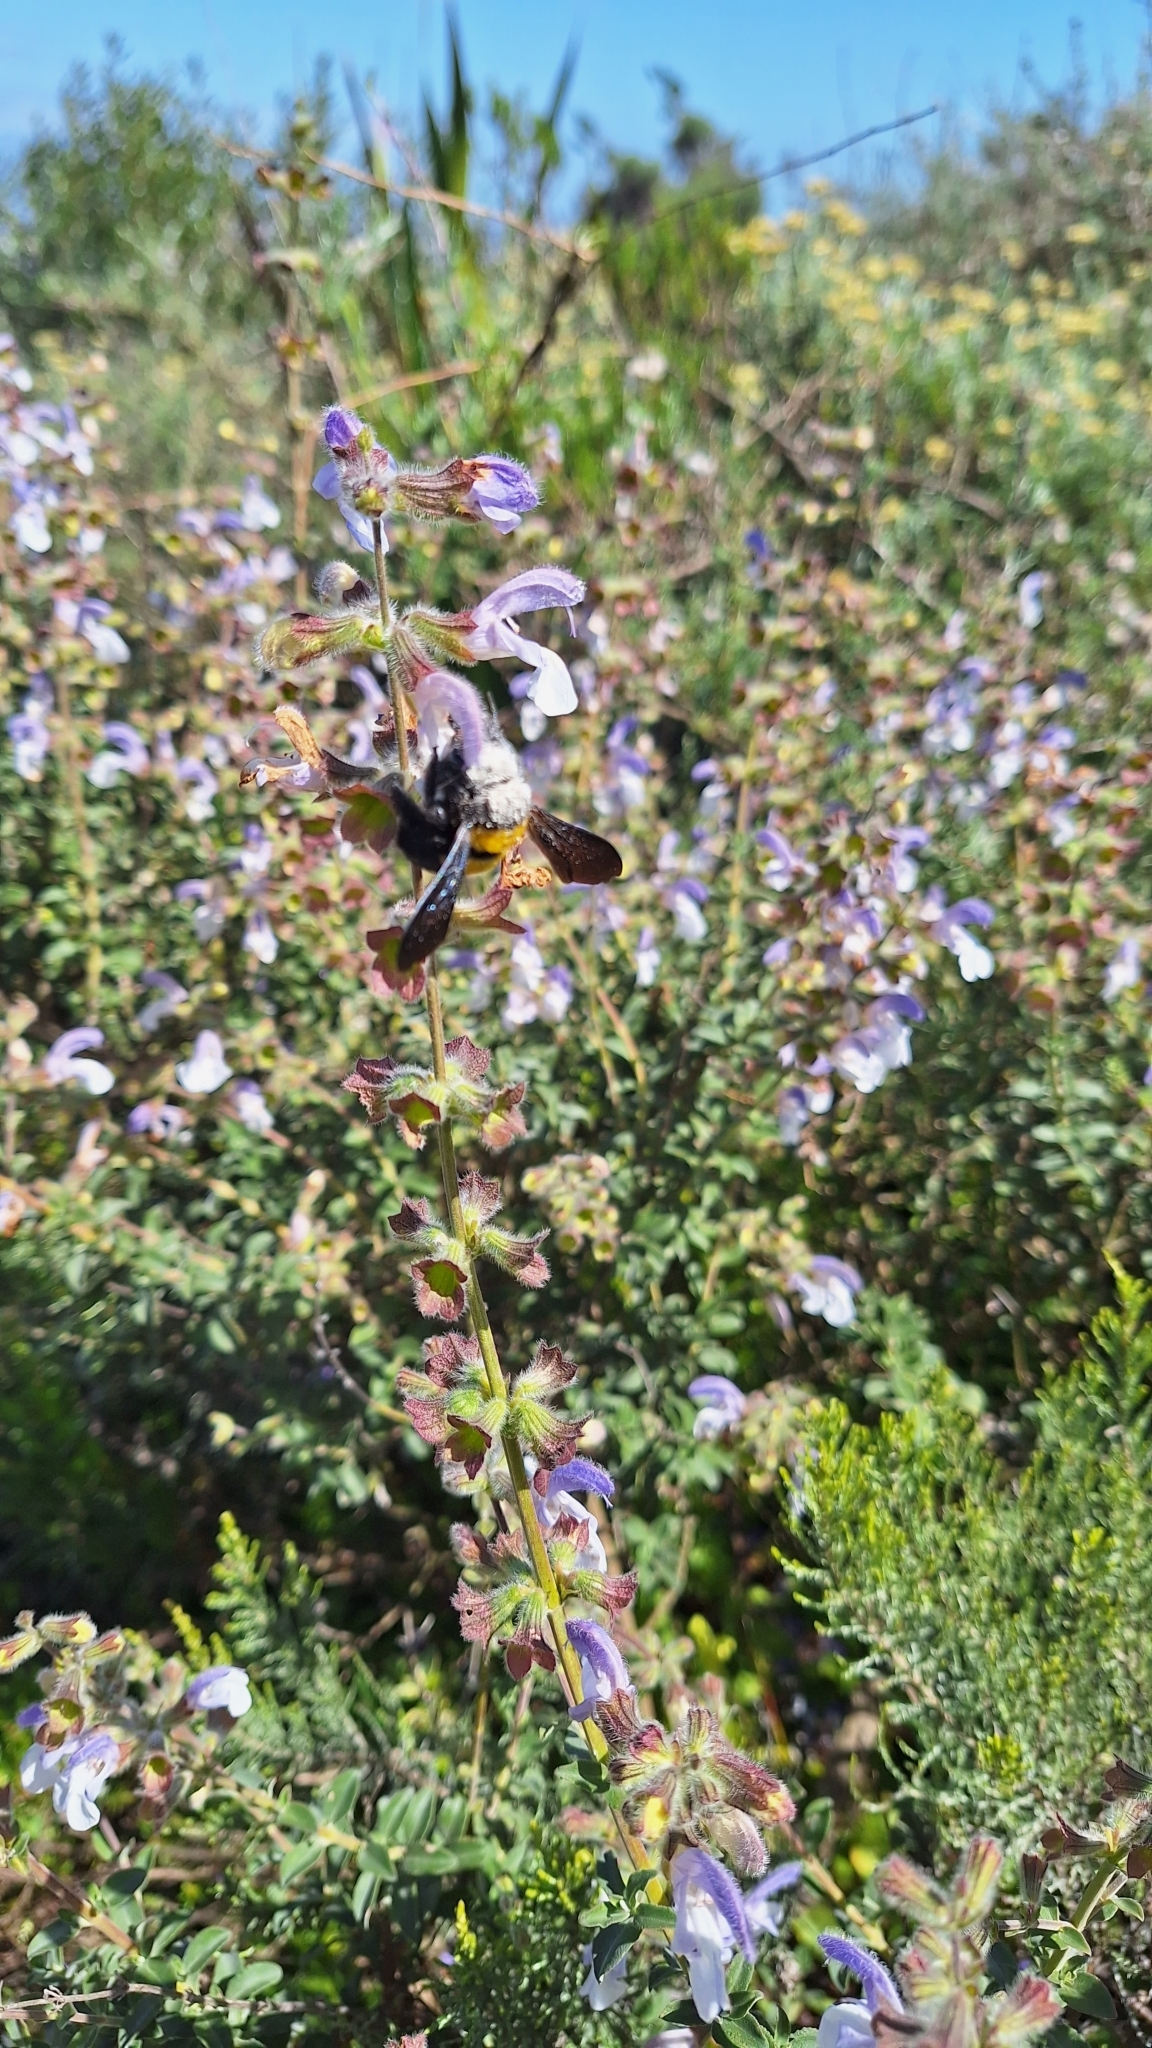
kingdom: Animalia
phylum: Arthropoda
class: Insecta
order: Hymenoptera
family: Apidae
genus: Xylocopa
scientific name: Xylocopa caffra
